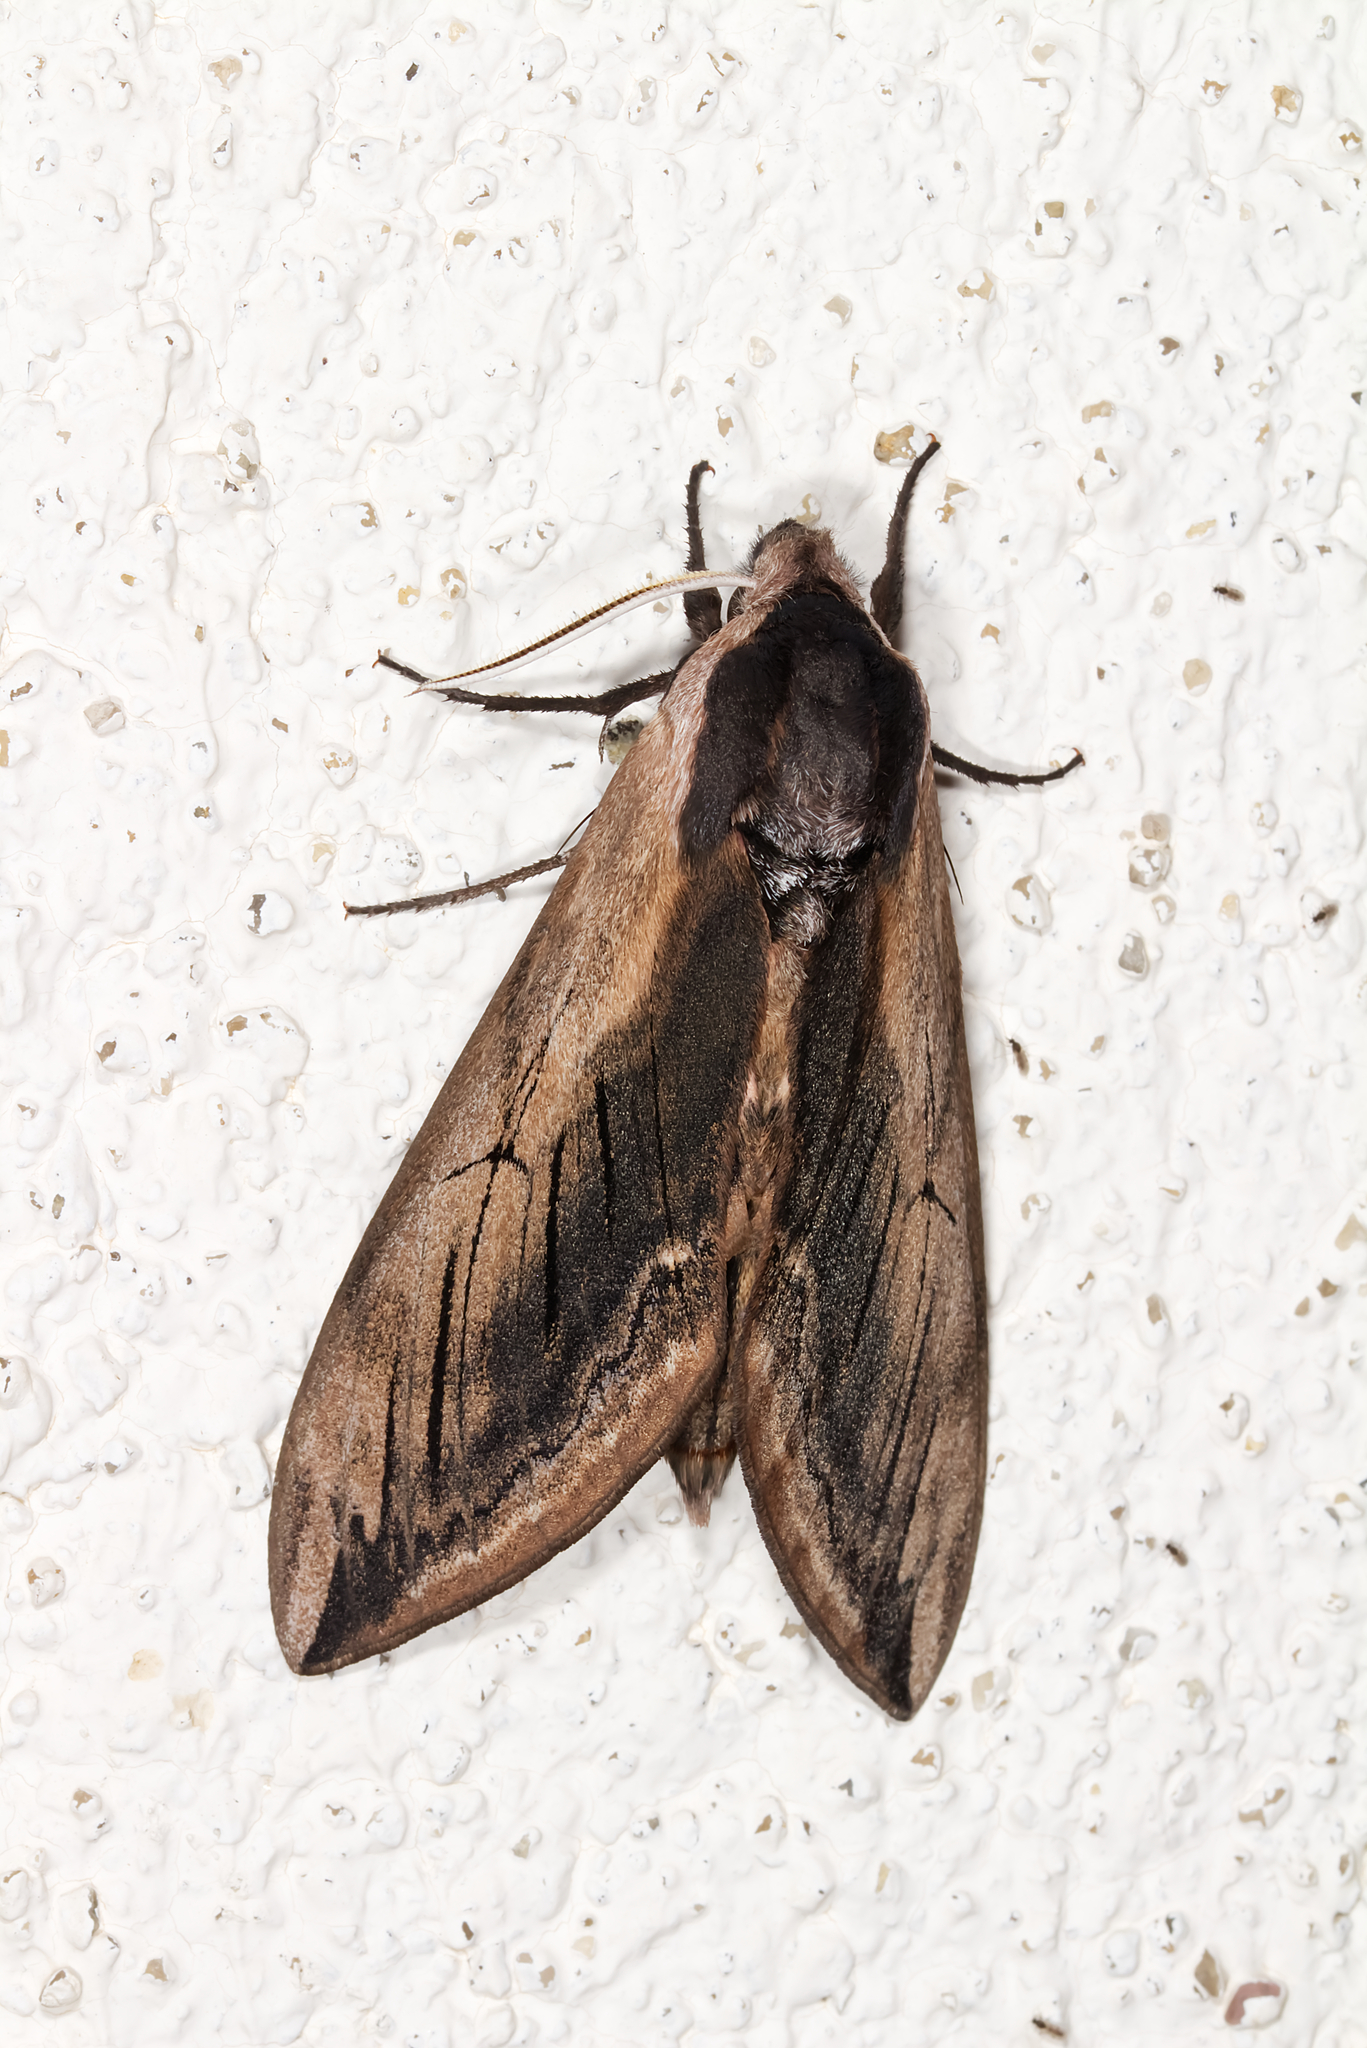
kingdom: Animalia
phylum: Arthropoda
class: Insecta
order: Lepidoptera
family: Sphingidae
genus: Sphinx
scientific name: Sphinx ligustri
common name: Privet hawk-moth
